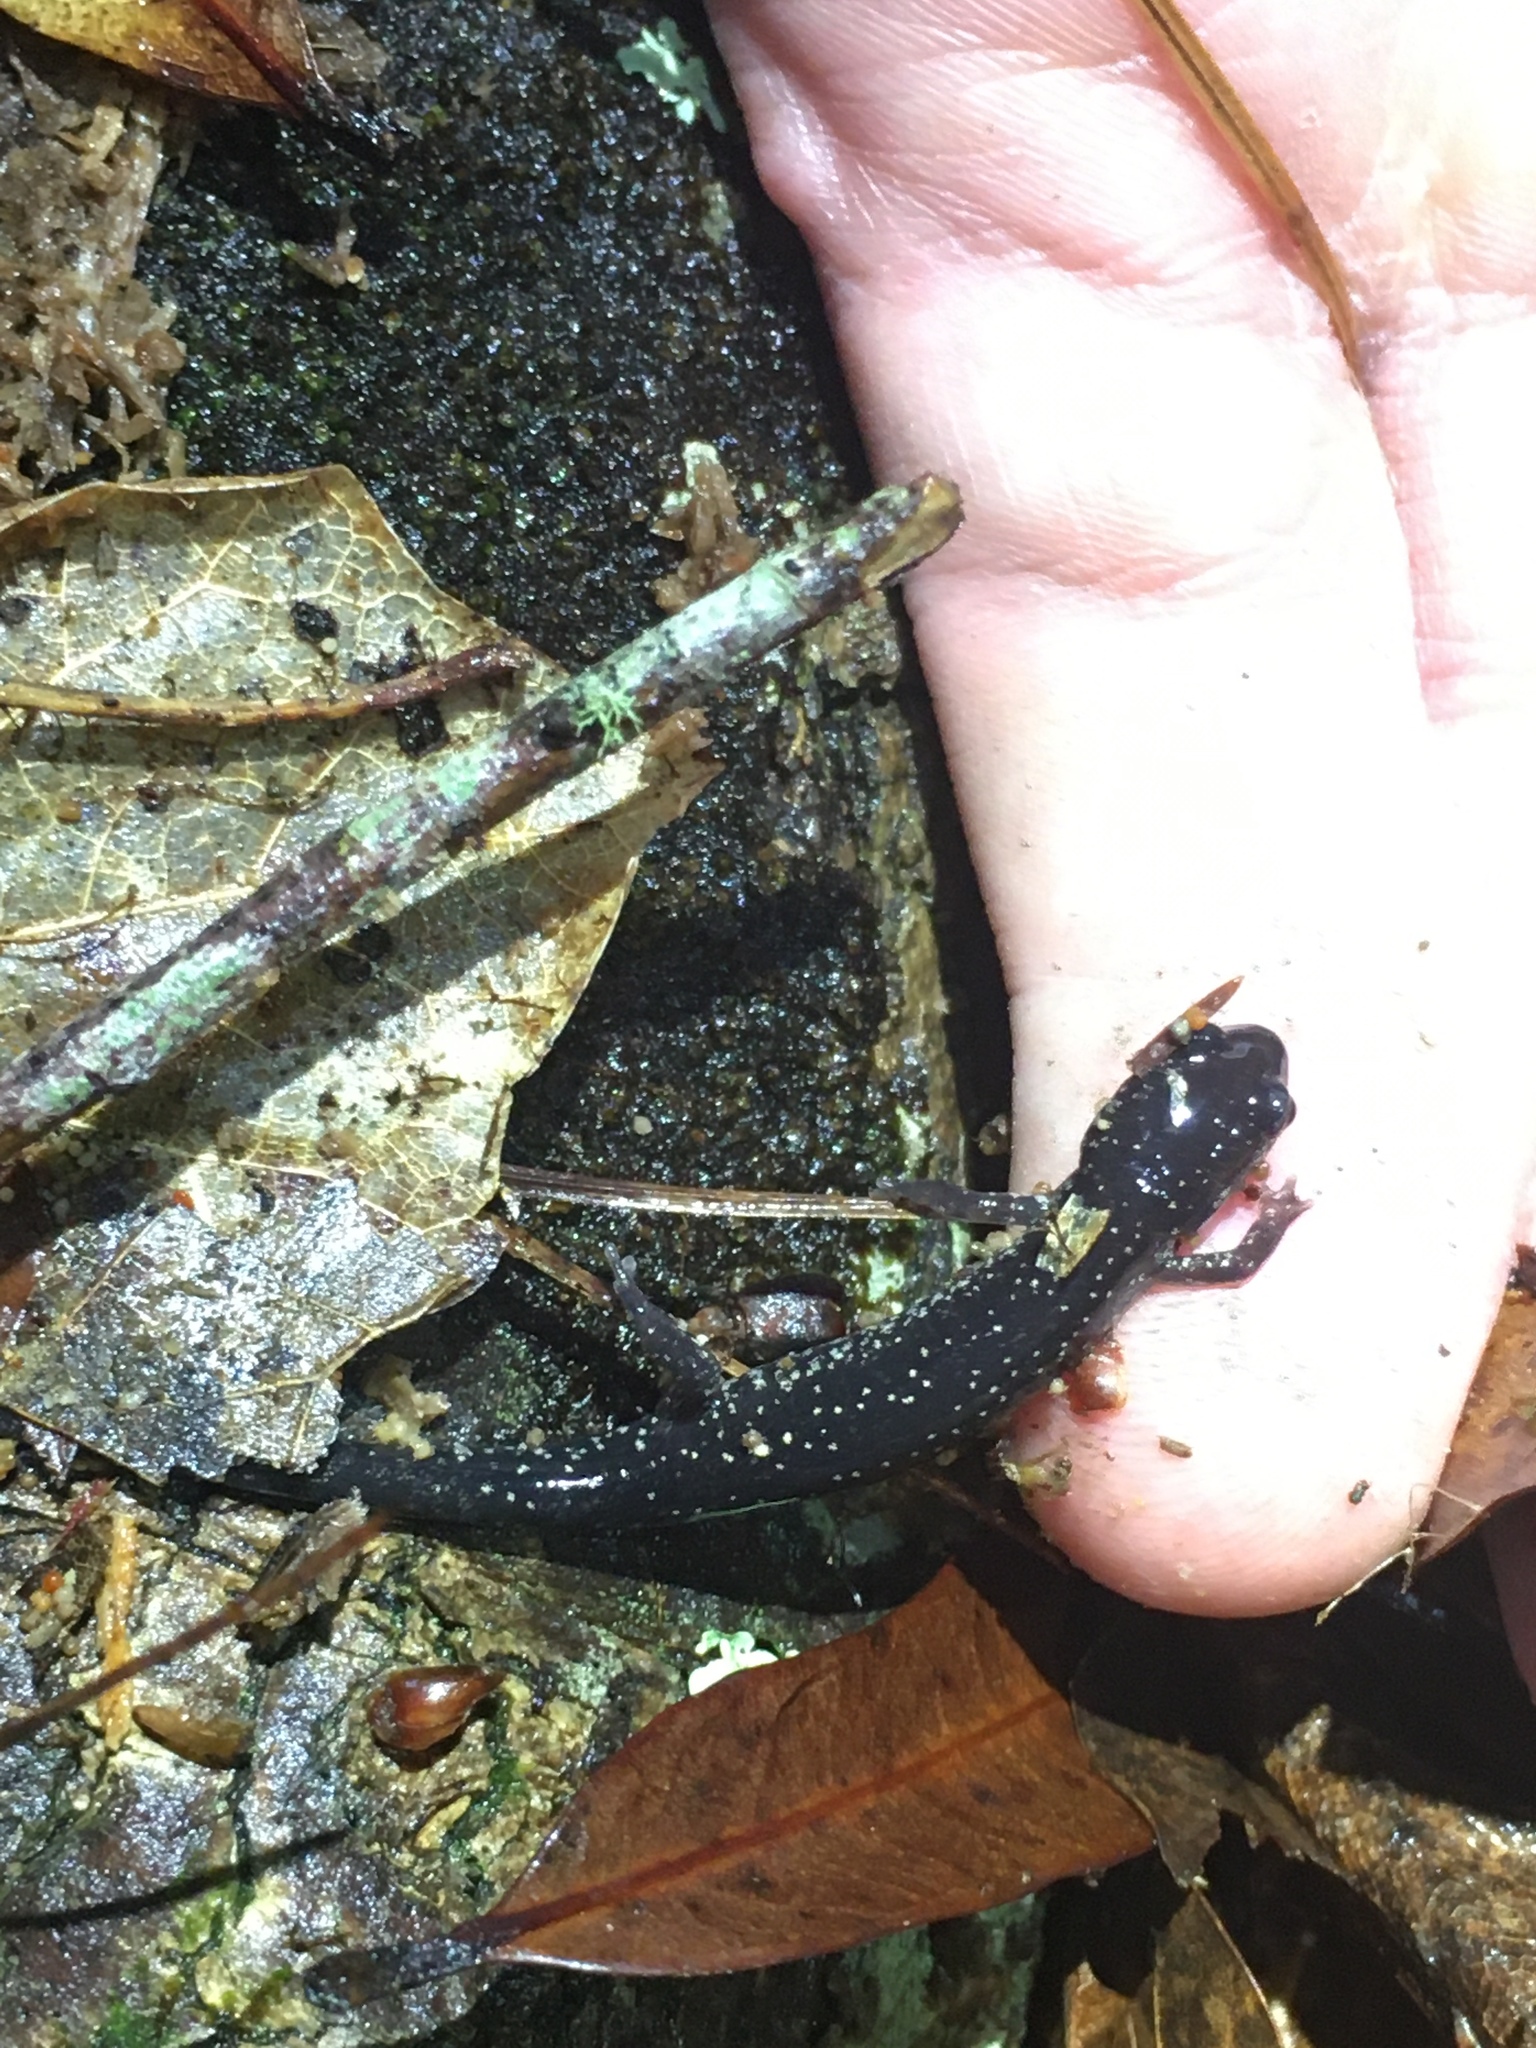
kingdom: Animalia
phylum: Chordata
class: Amphibia
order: Caudata
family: Plethodontidae
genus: Plethodon
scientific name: Plethodon mississippi
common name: Mississippi slimy salamander
